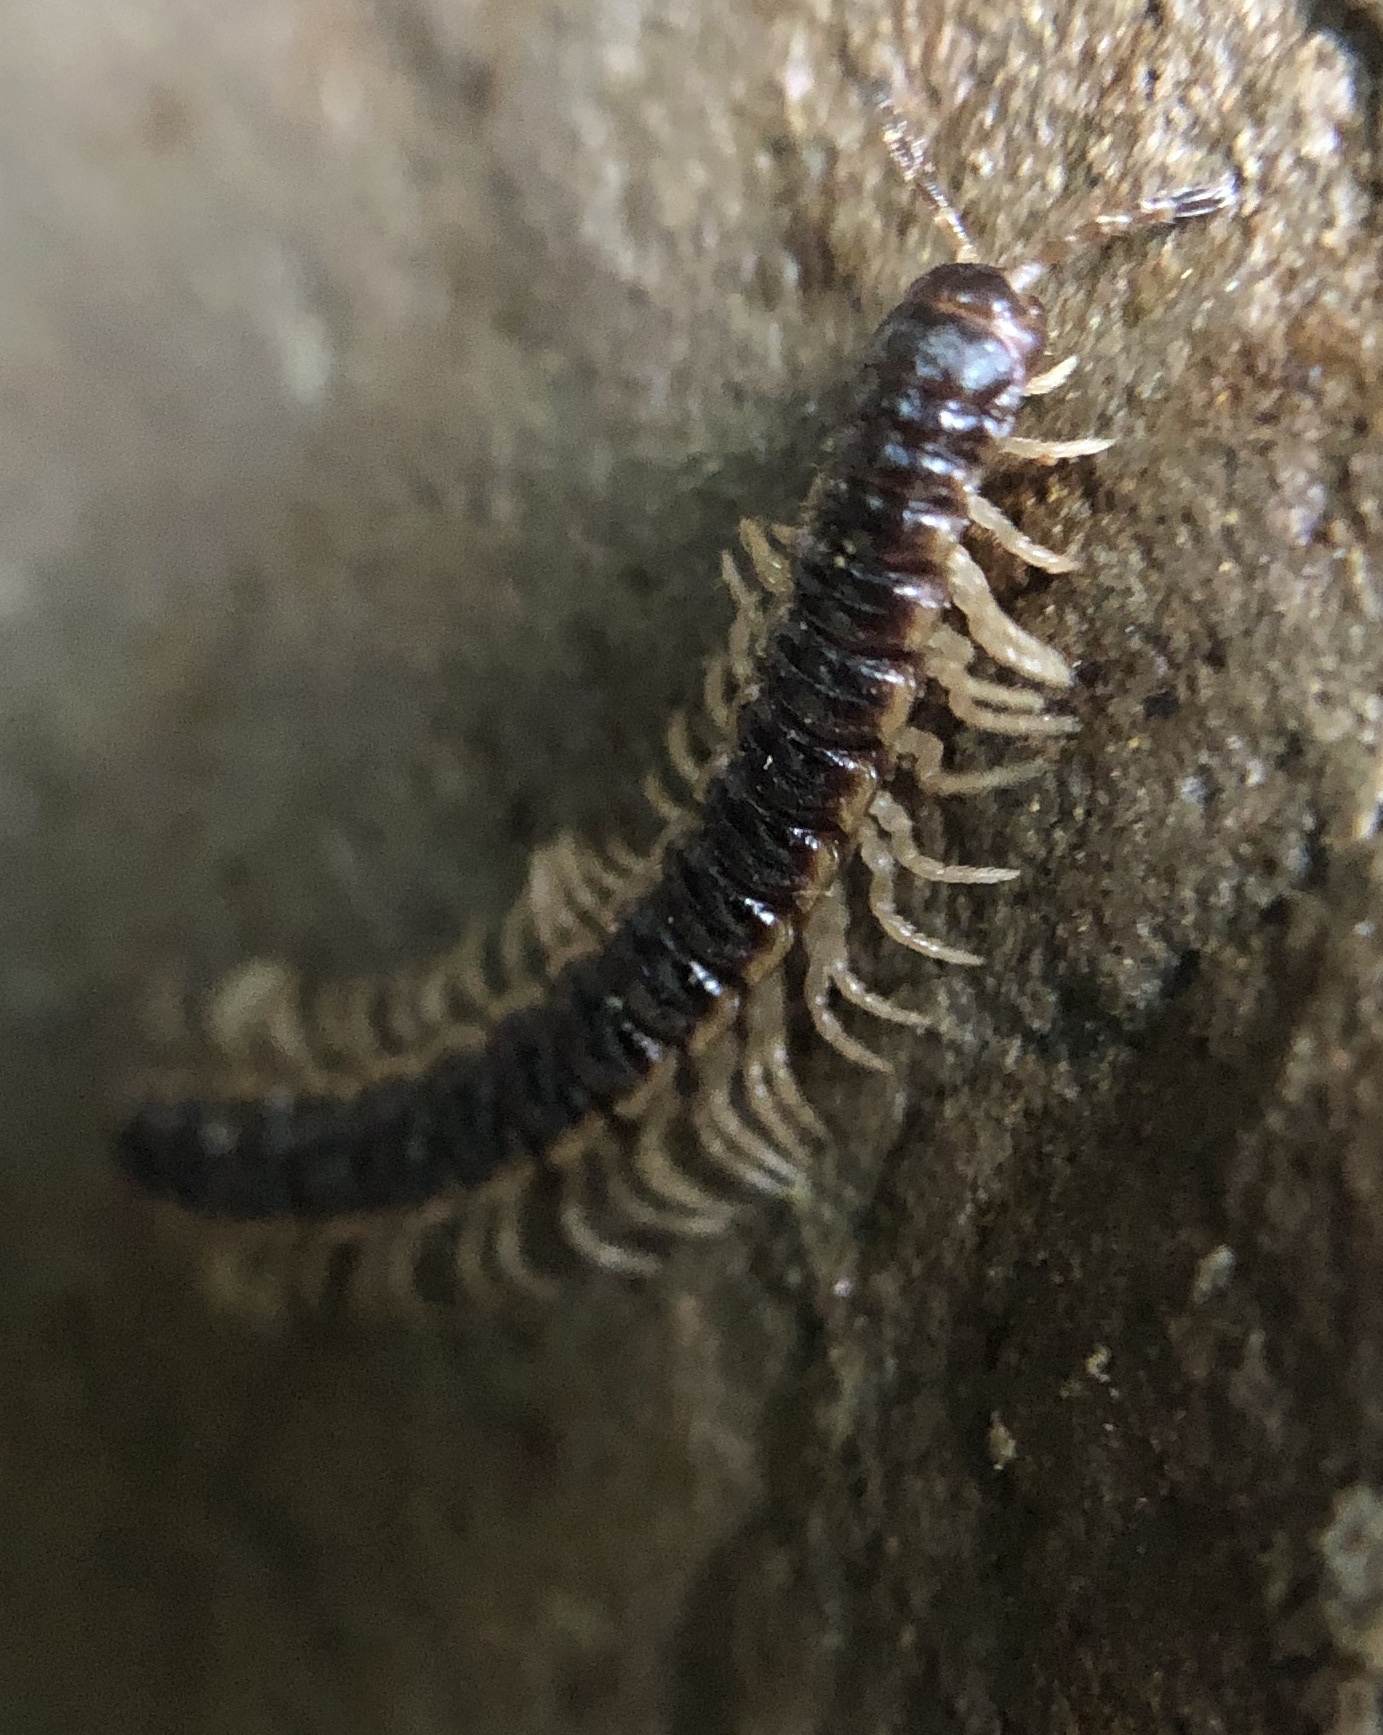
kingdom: Animalia
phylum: Arthropoda
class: Diplopoda
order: Polydesmida
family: Paradoxosomatidae
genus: Oxidus
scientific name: Oxidus gracilis
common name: Greenhouse millipede
